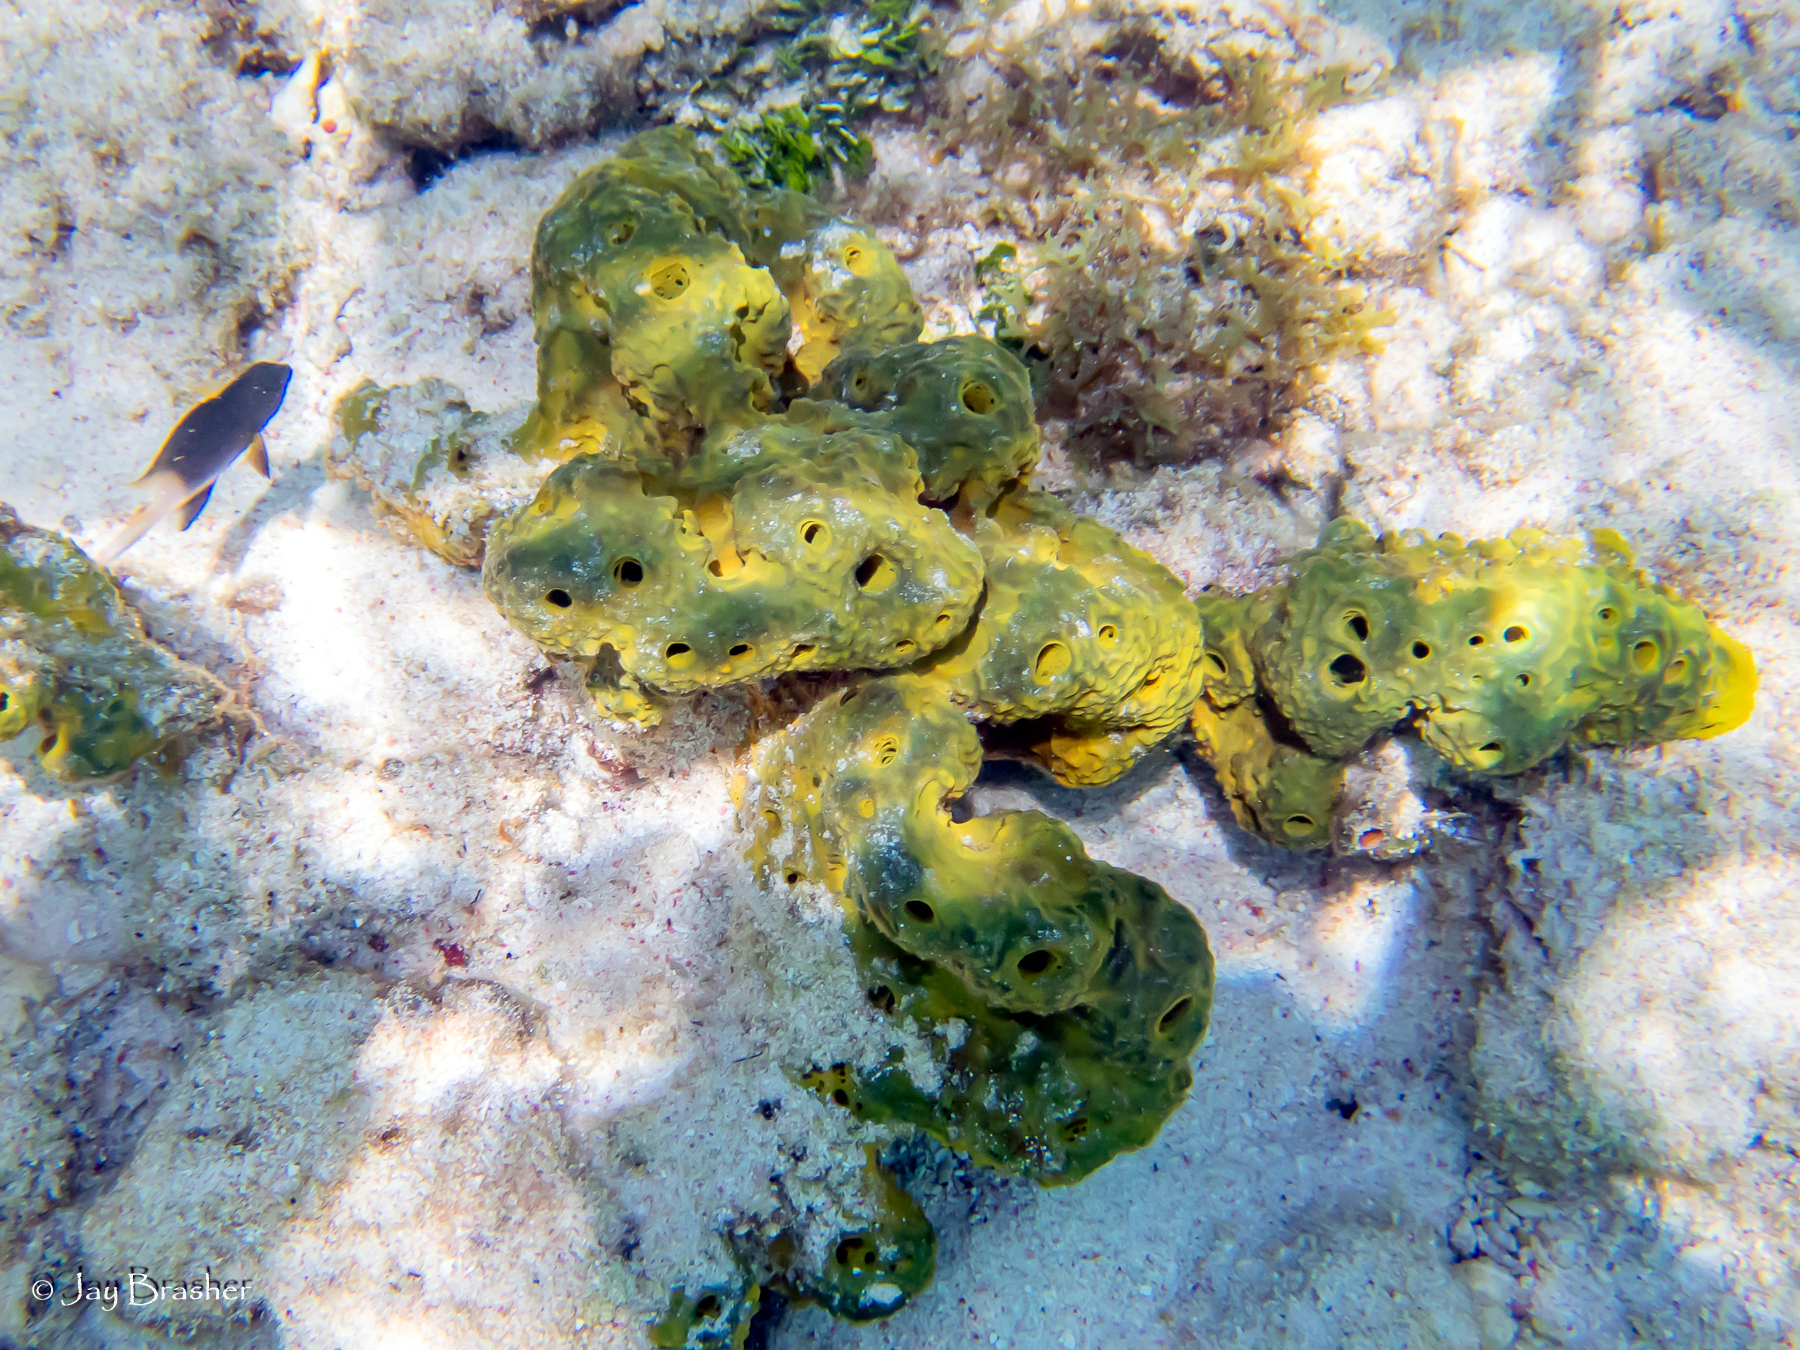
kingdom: Animalia
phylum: Chordata
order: Perciformes
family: Pomacentridae
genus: Stegastes
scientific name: Stegastes partitus
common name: Bicolor damselfish
